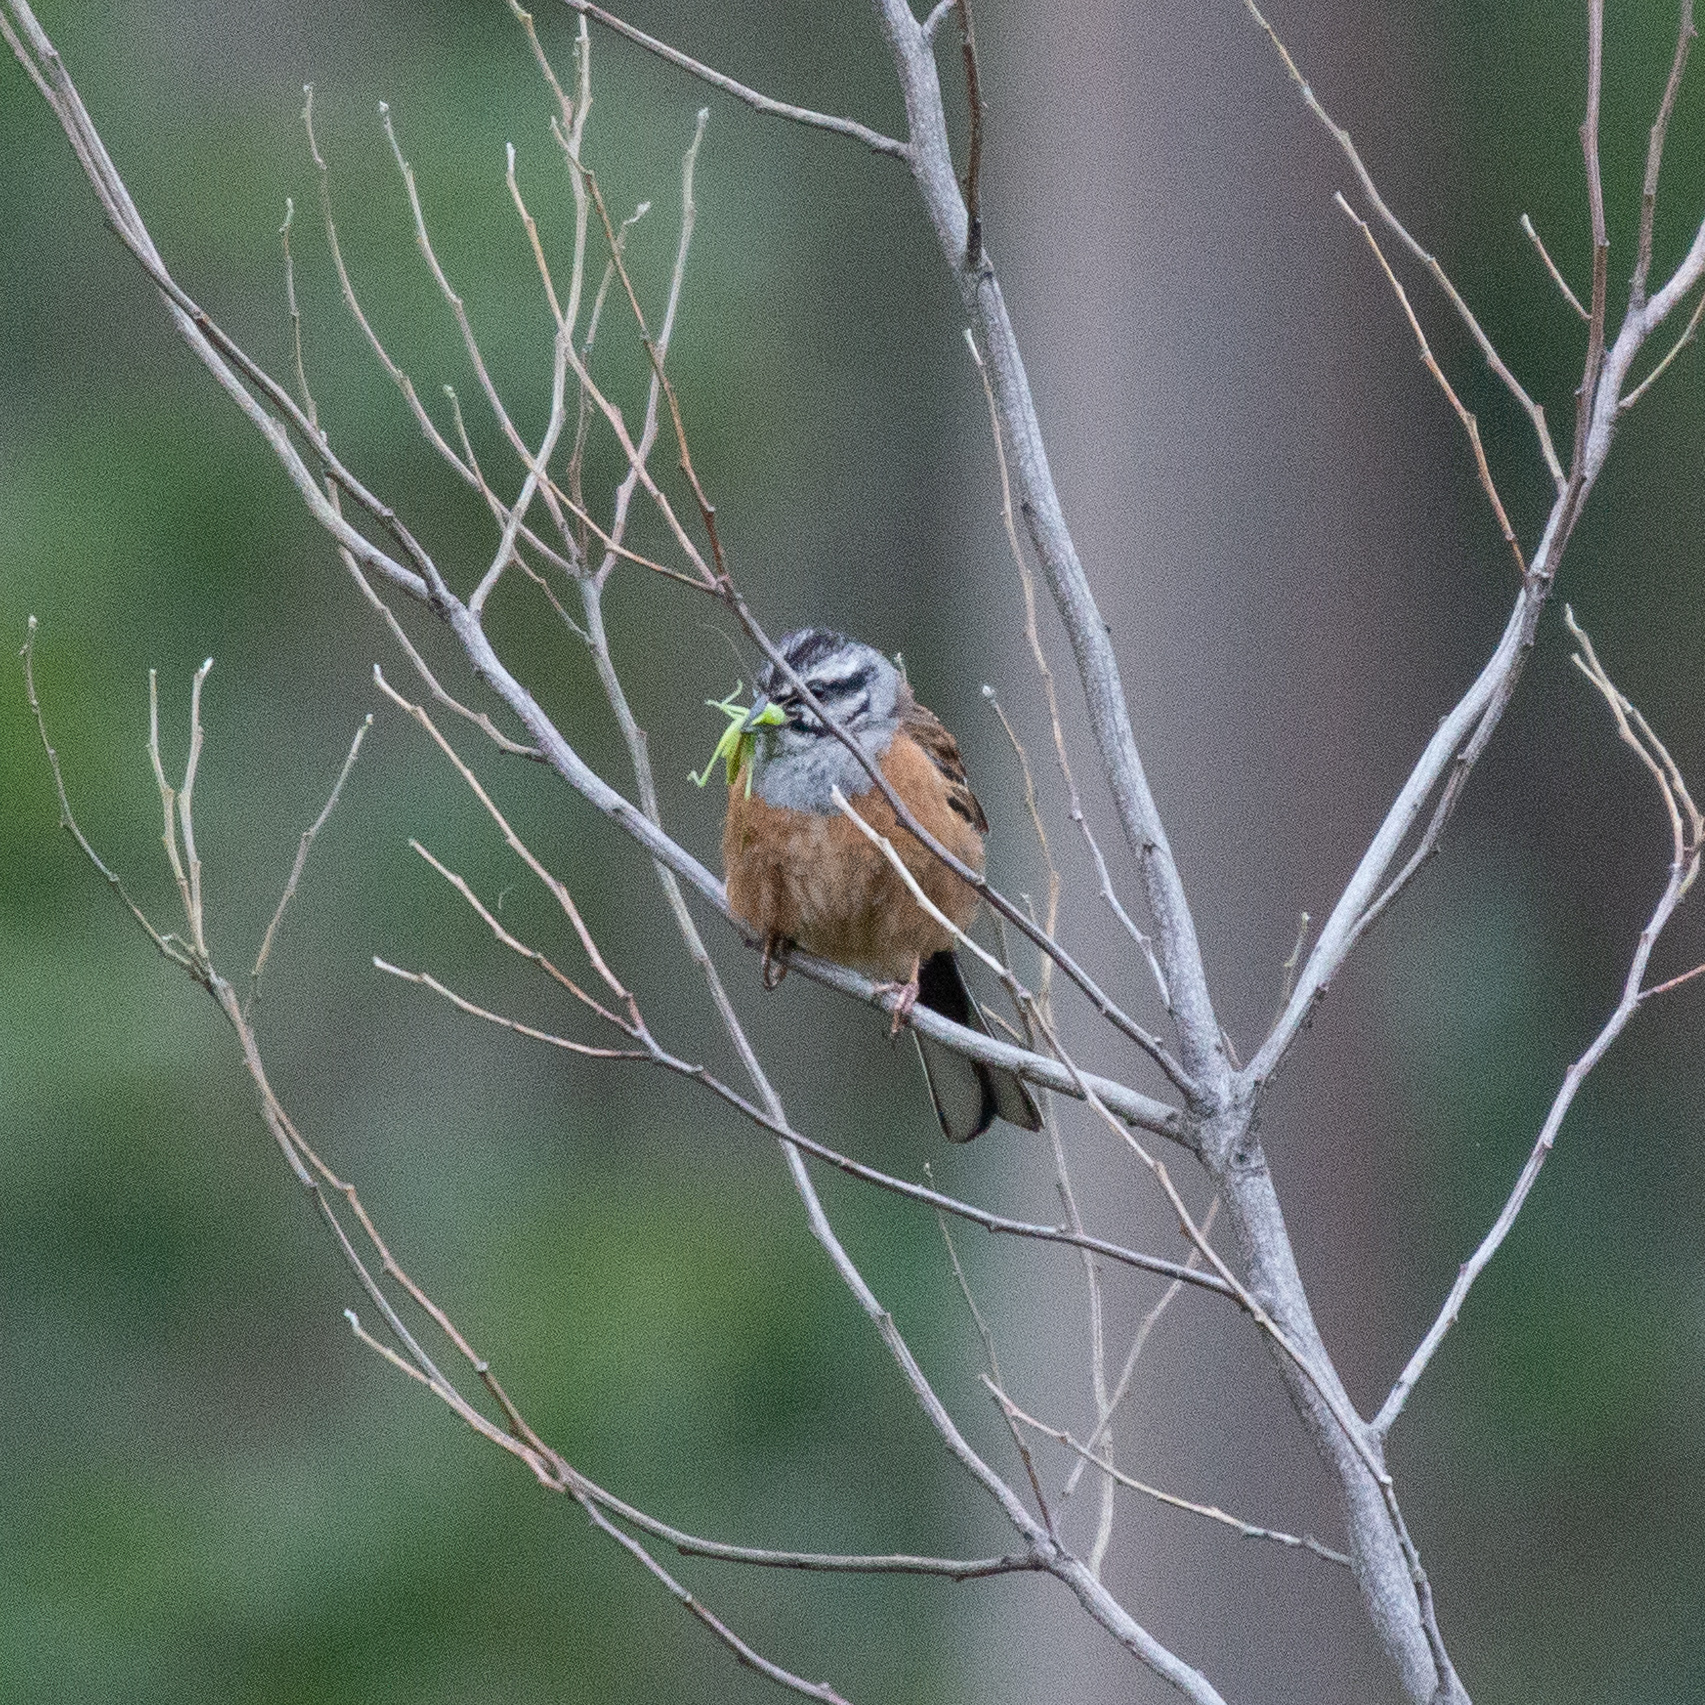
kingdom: Animalia
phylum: Chordata
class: Aves
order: Passeriformes
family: Emberizidae
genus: Emberiza
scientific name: Emberiza cia
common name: Rock bunting
